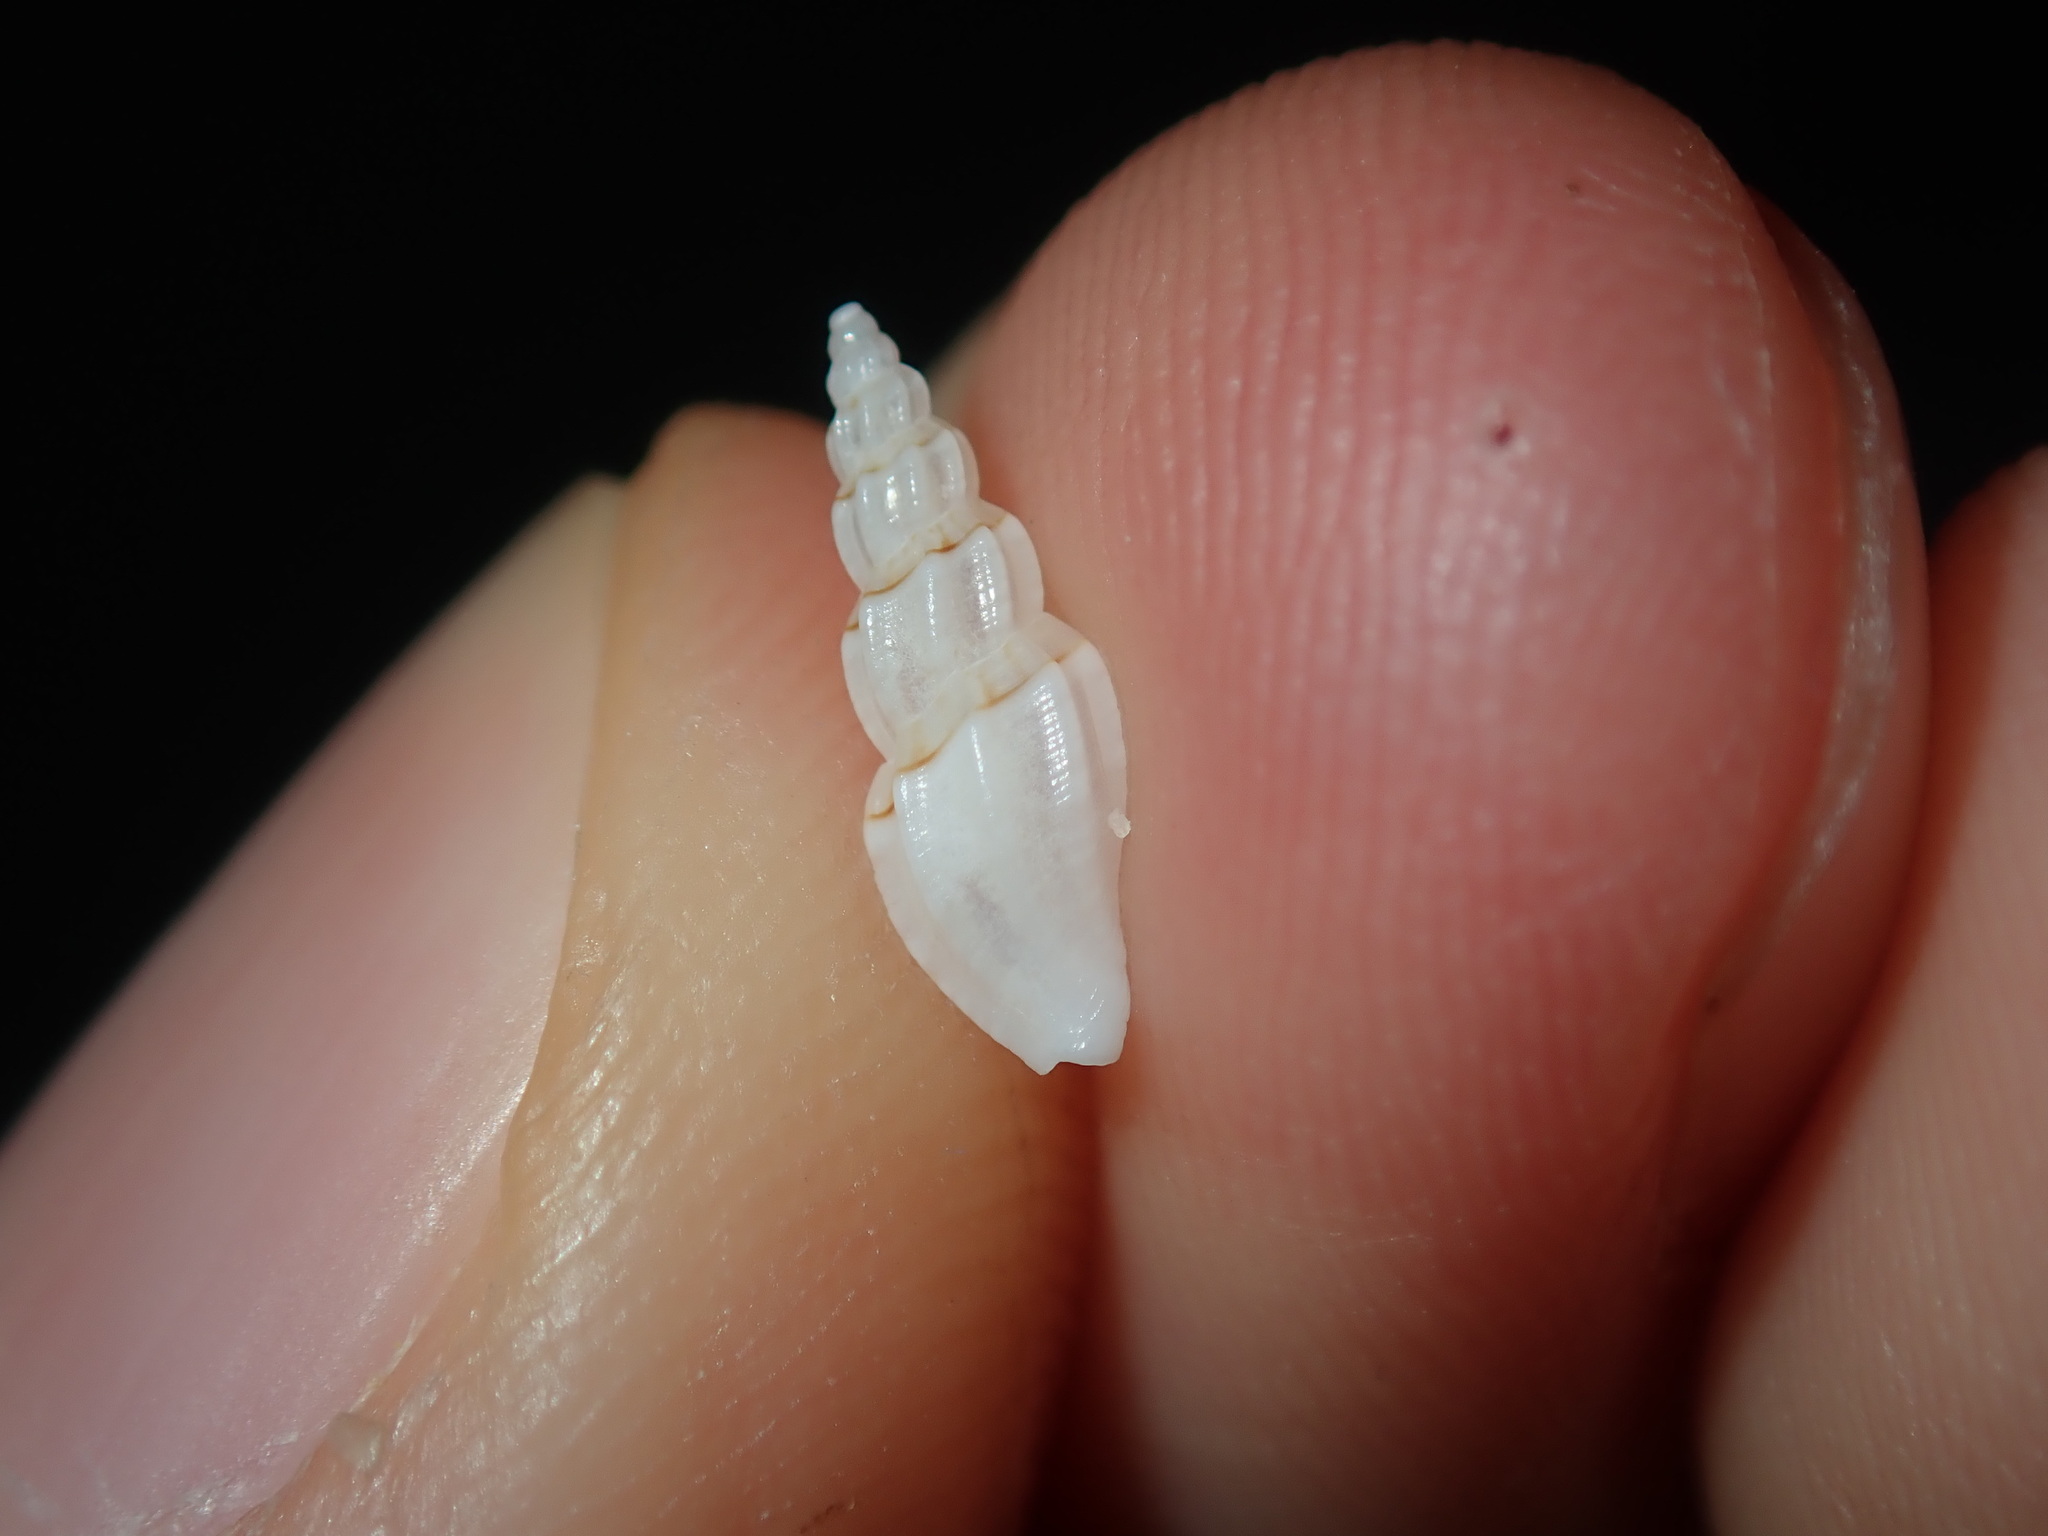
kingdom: Animalia
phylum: Mollusca
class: Gastropoda
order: Neogastropoda
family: Mangeliidae
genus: Guraleus
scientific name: Guraleus pictus
